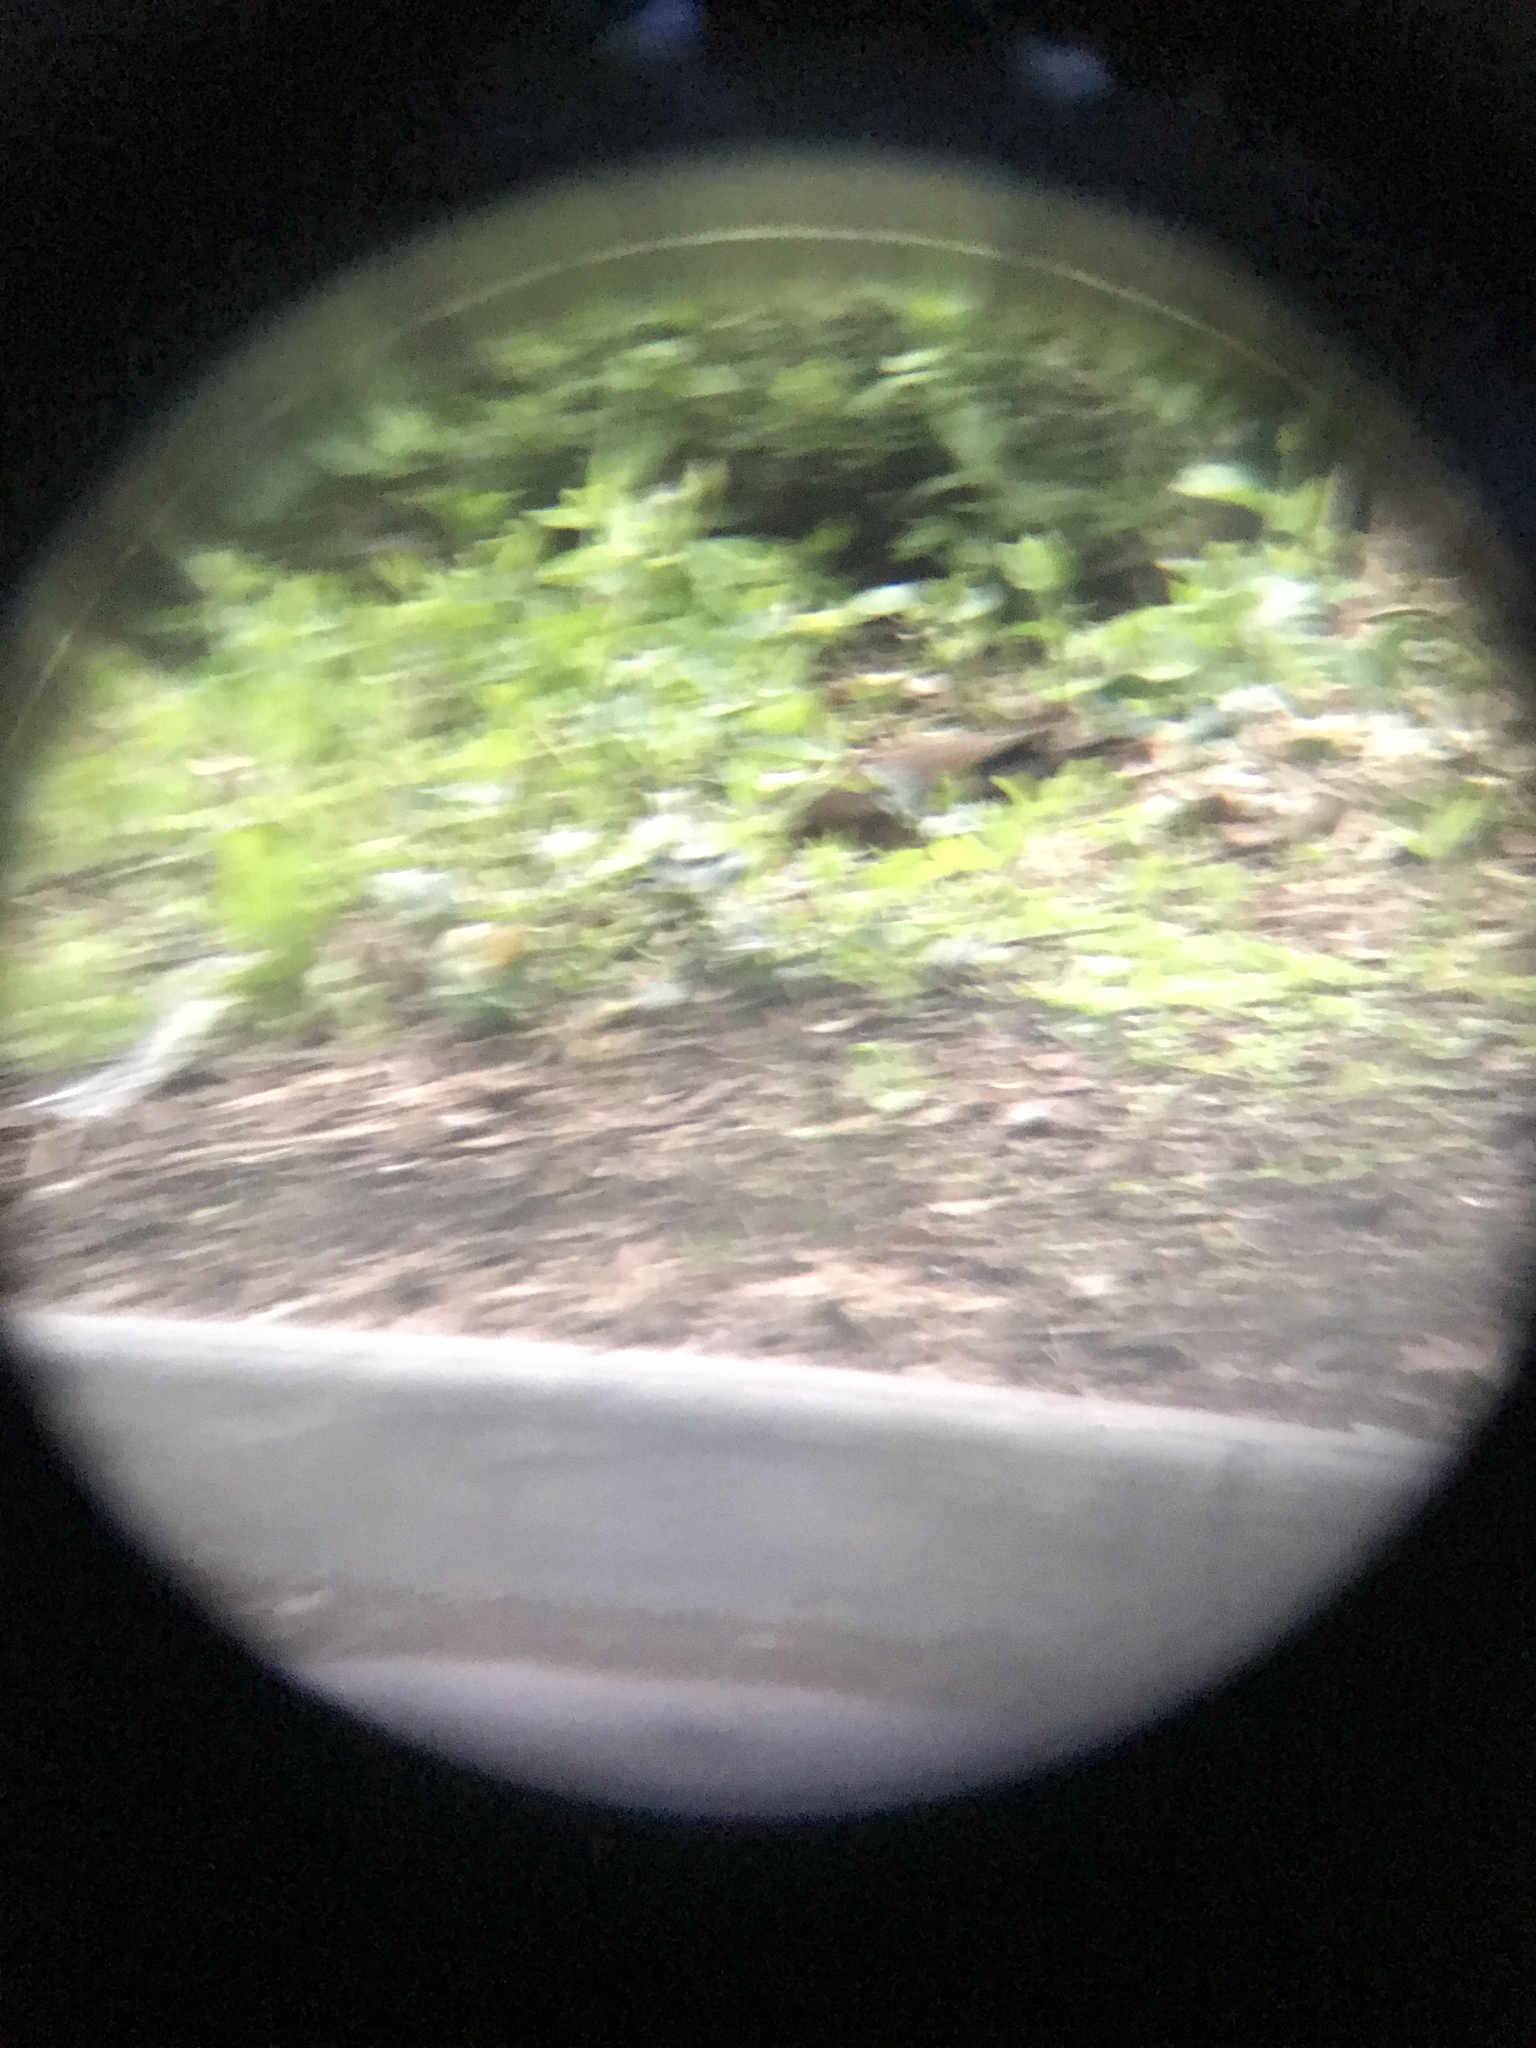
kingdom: Animalia
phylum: Chordata
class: Aves
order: Passeriformes
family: Turdidae
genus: Turdus
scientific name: Turdus merula
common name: Common blackbird
